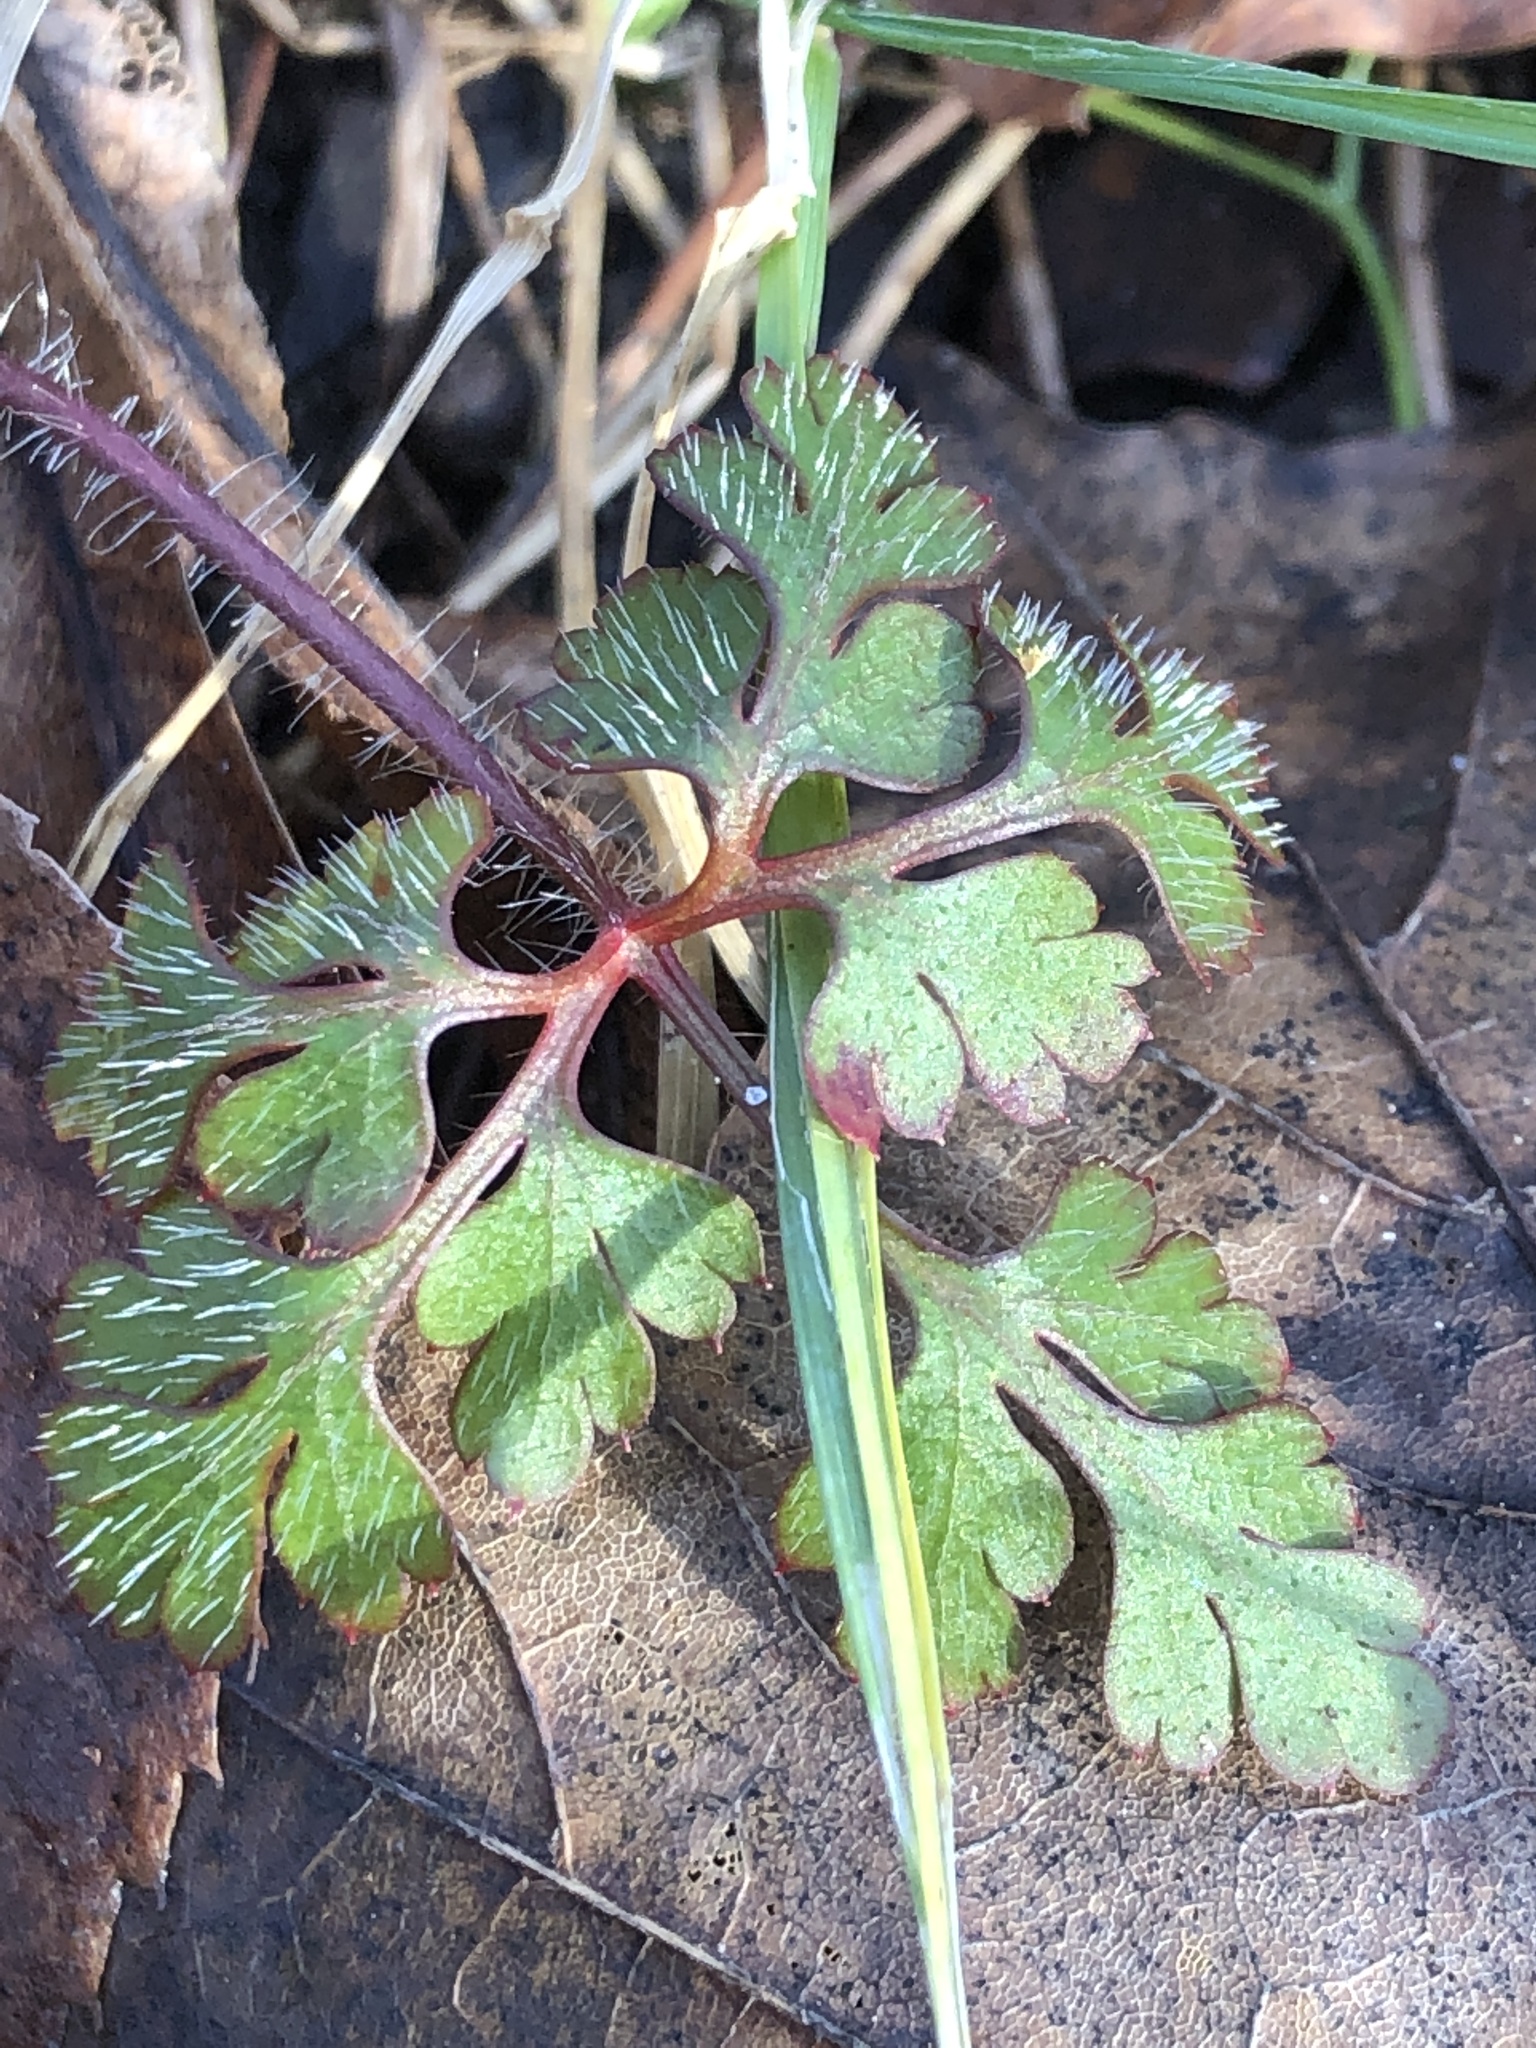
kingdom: Plantae
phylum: Tracheophyta
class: Magnoliopsida
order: Geraniales
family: Geraniaceae
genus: Geranium
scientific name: Geranium robertianum
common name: Herb-robert
